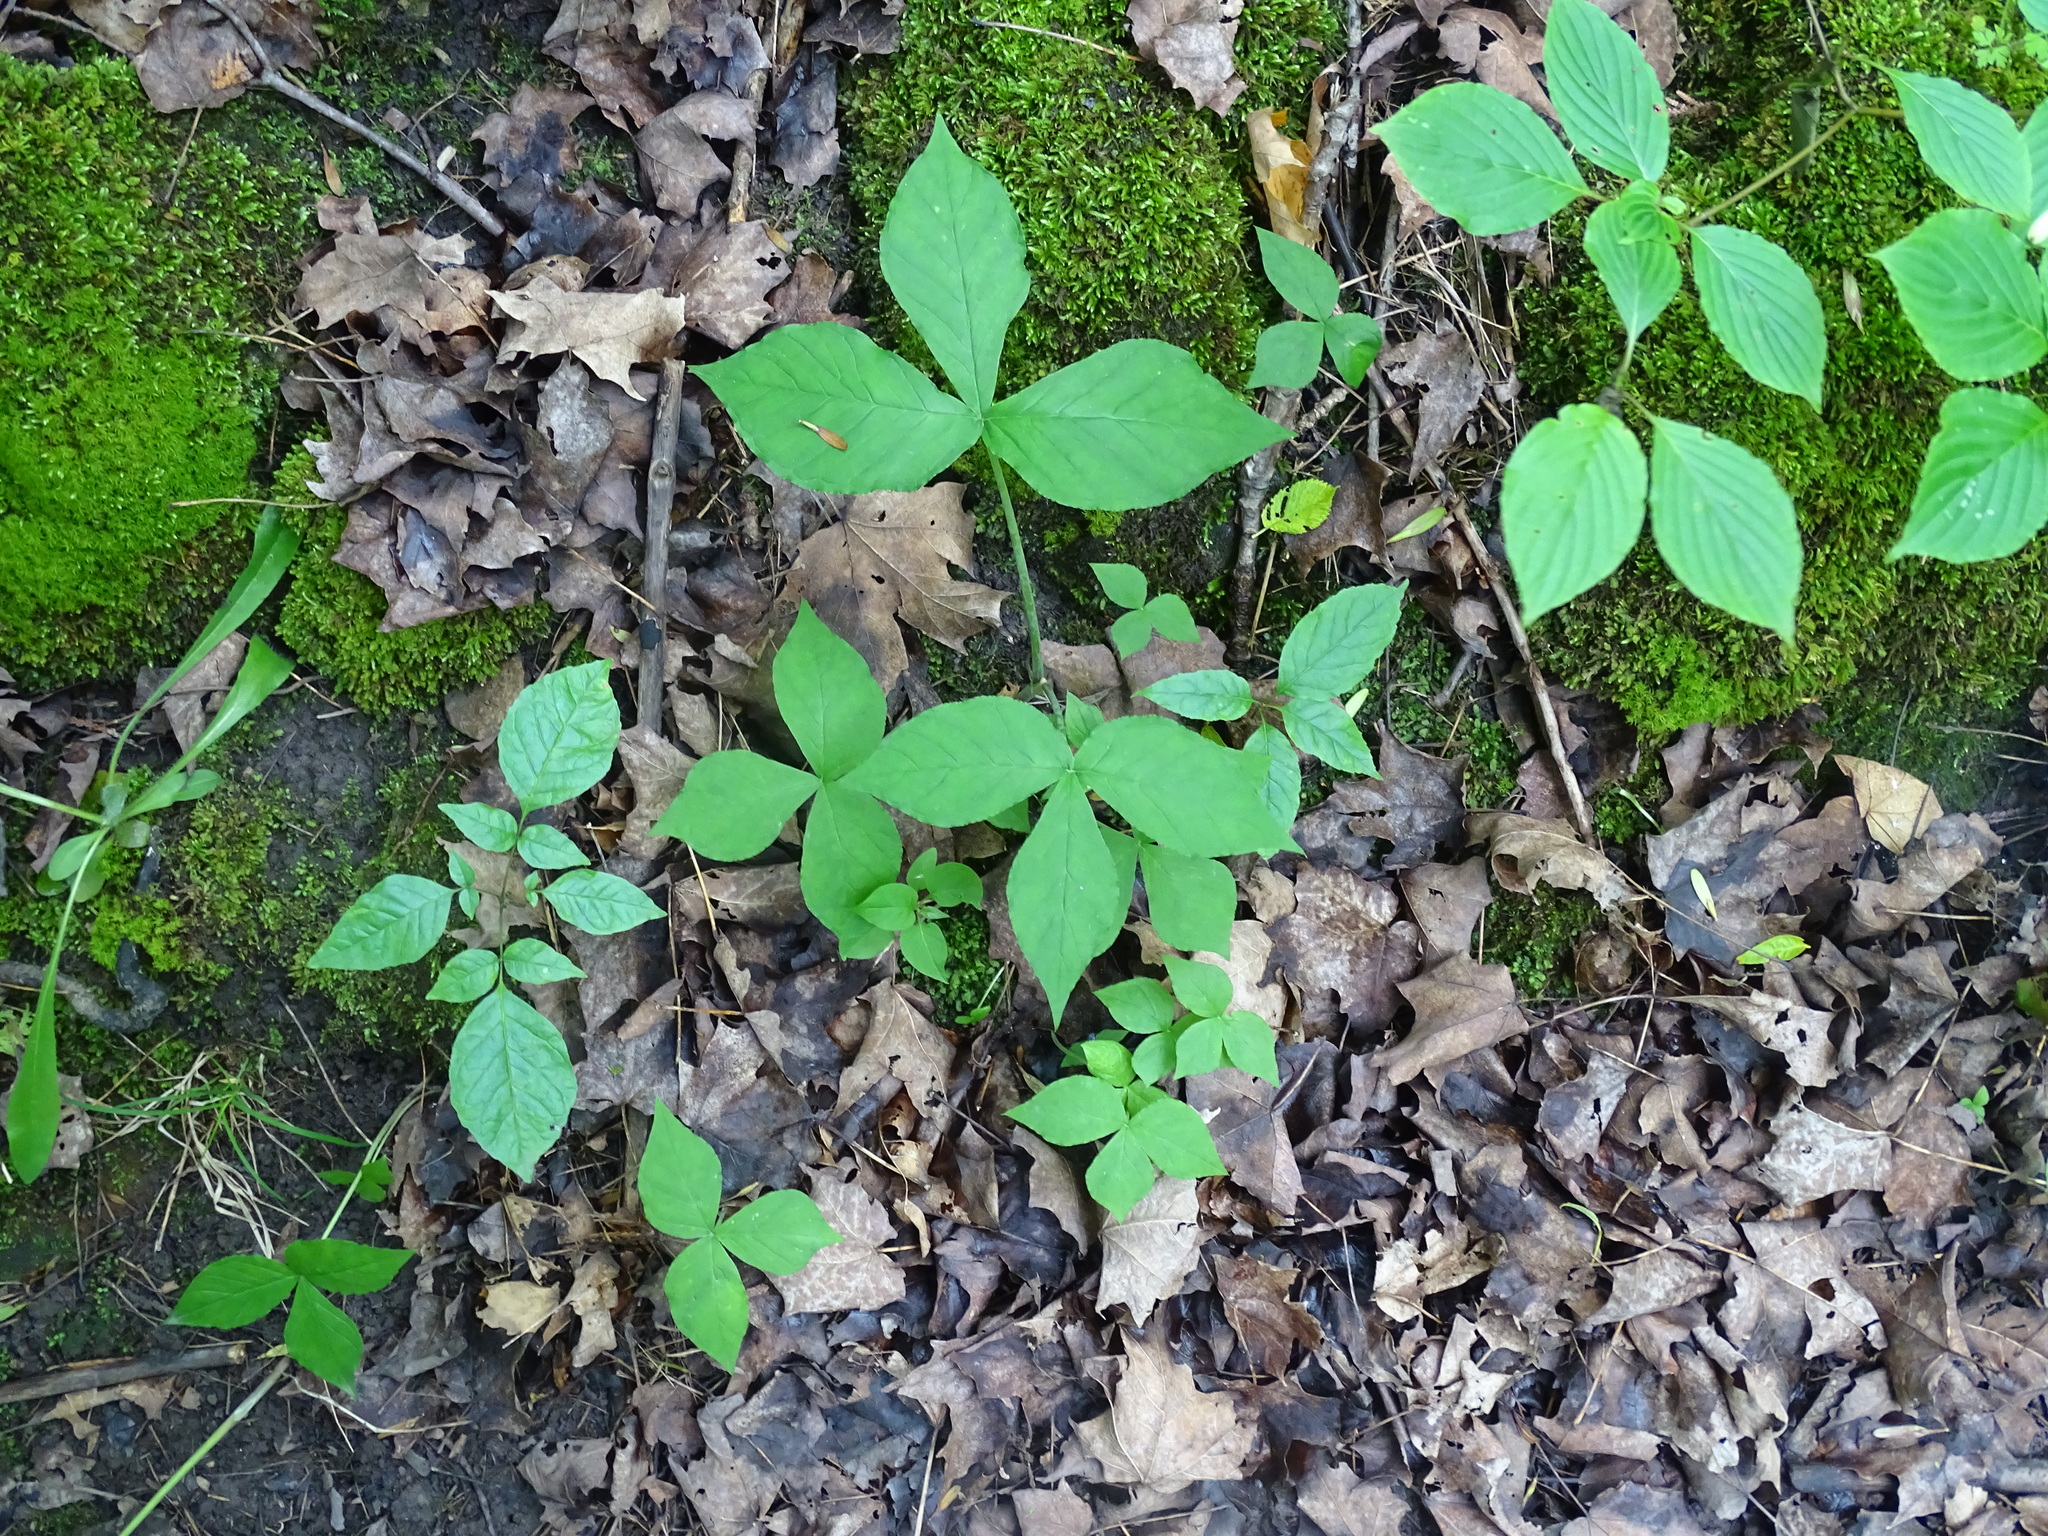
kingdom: Plantae
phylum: Tracheophyta
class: Liliopsida
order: Alismatales
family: Araceae
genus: Arisaema
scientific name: Arisaema triphyllum
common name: Jack-in-the-pulpit
